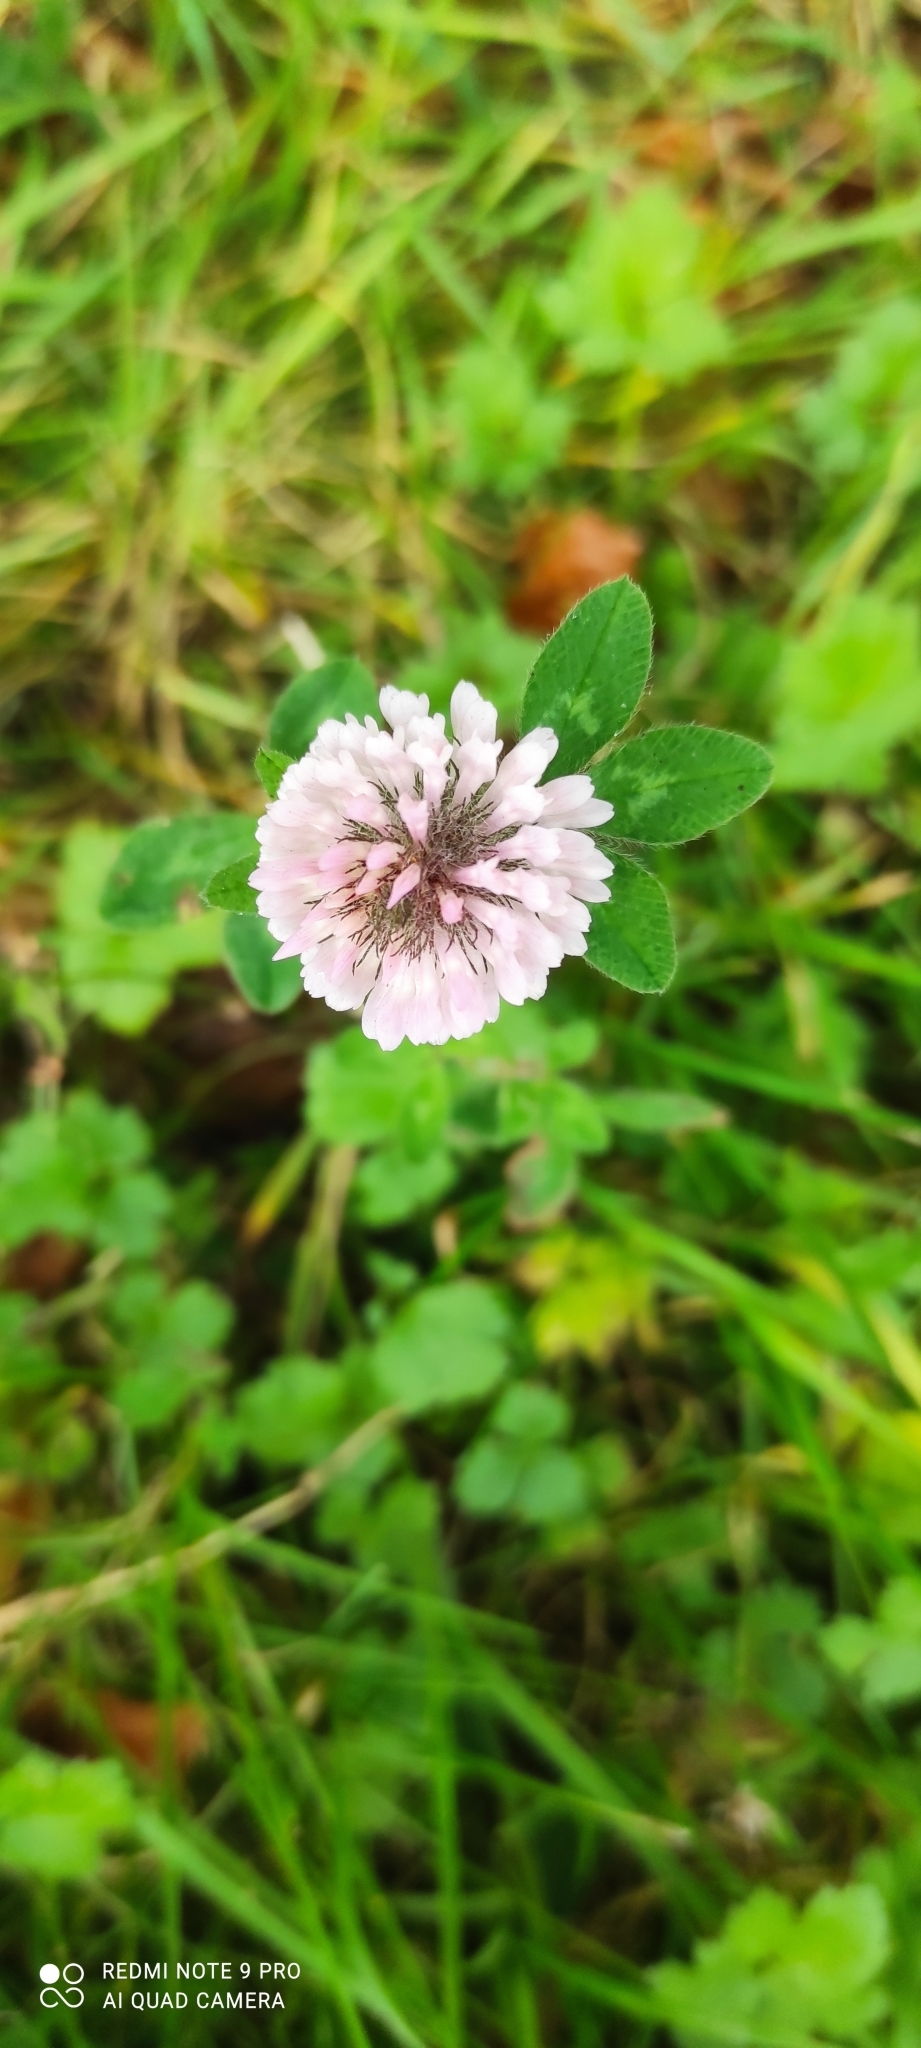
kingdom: Plantae
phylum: Tracheophyta
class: Magnoliopsida
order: Fabales
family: Fabaceae
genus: Trifolium
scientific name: Trifolium pratense
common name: Red clover
